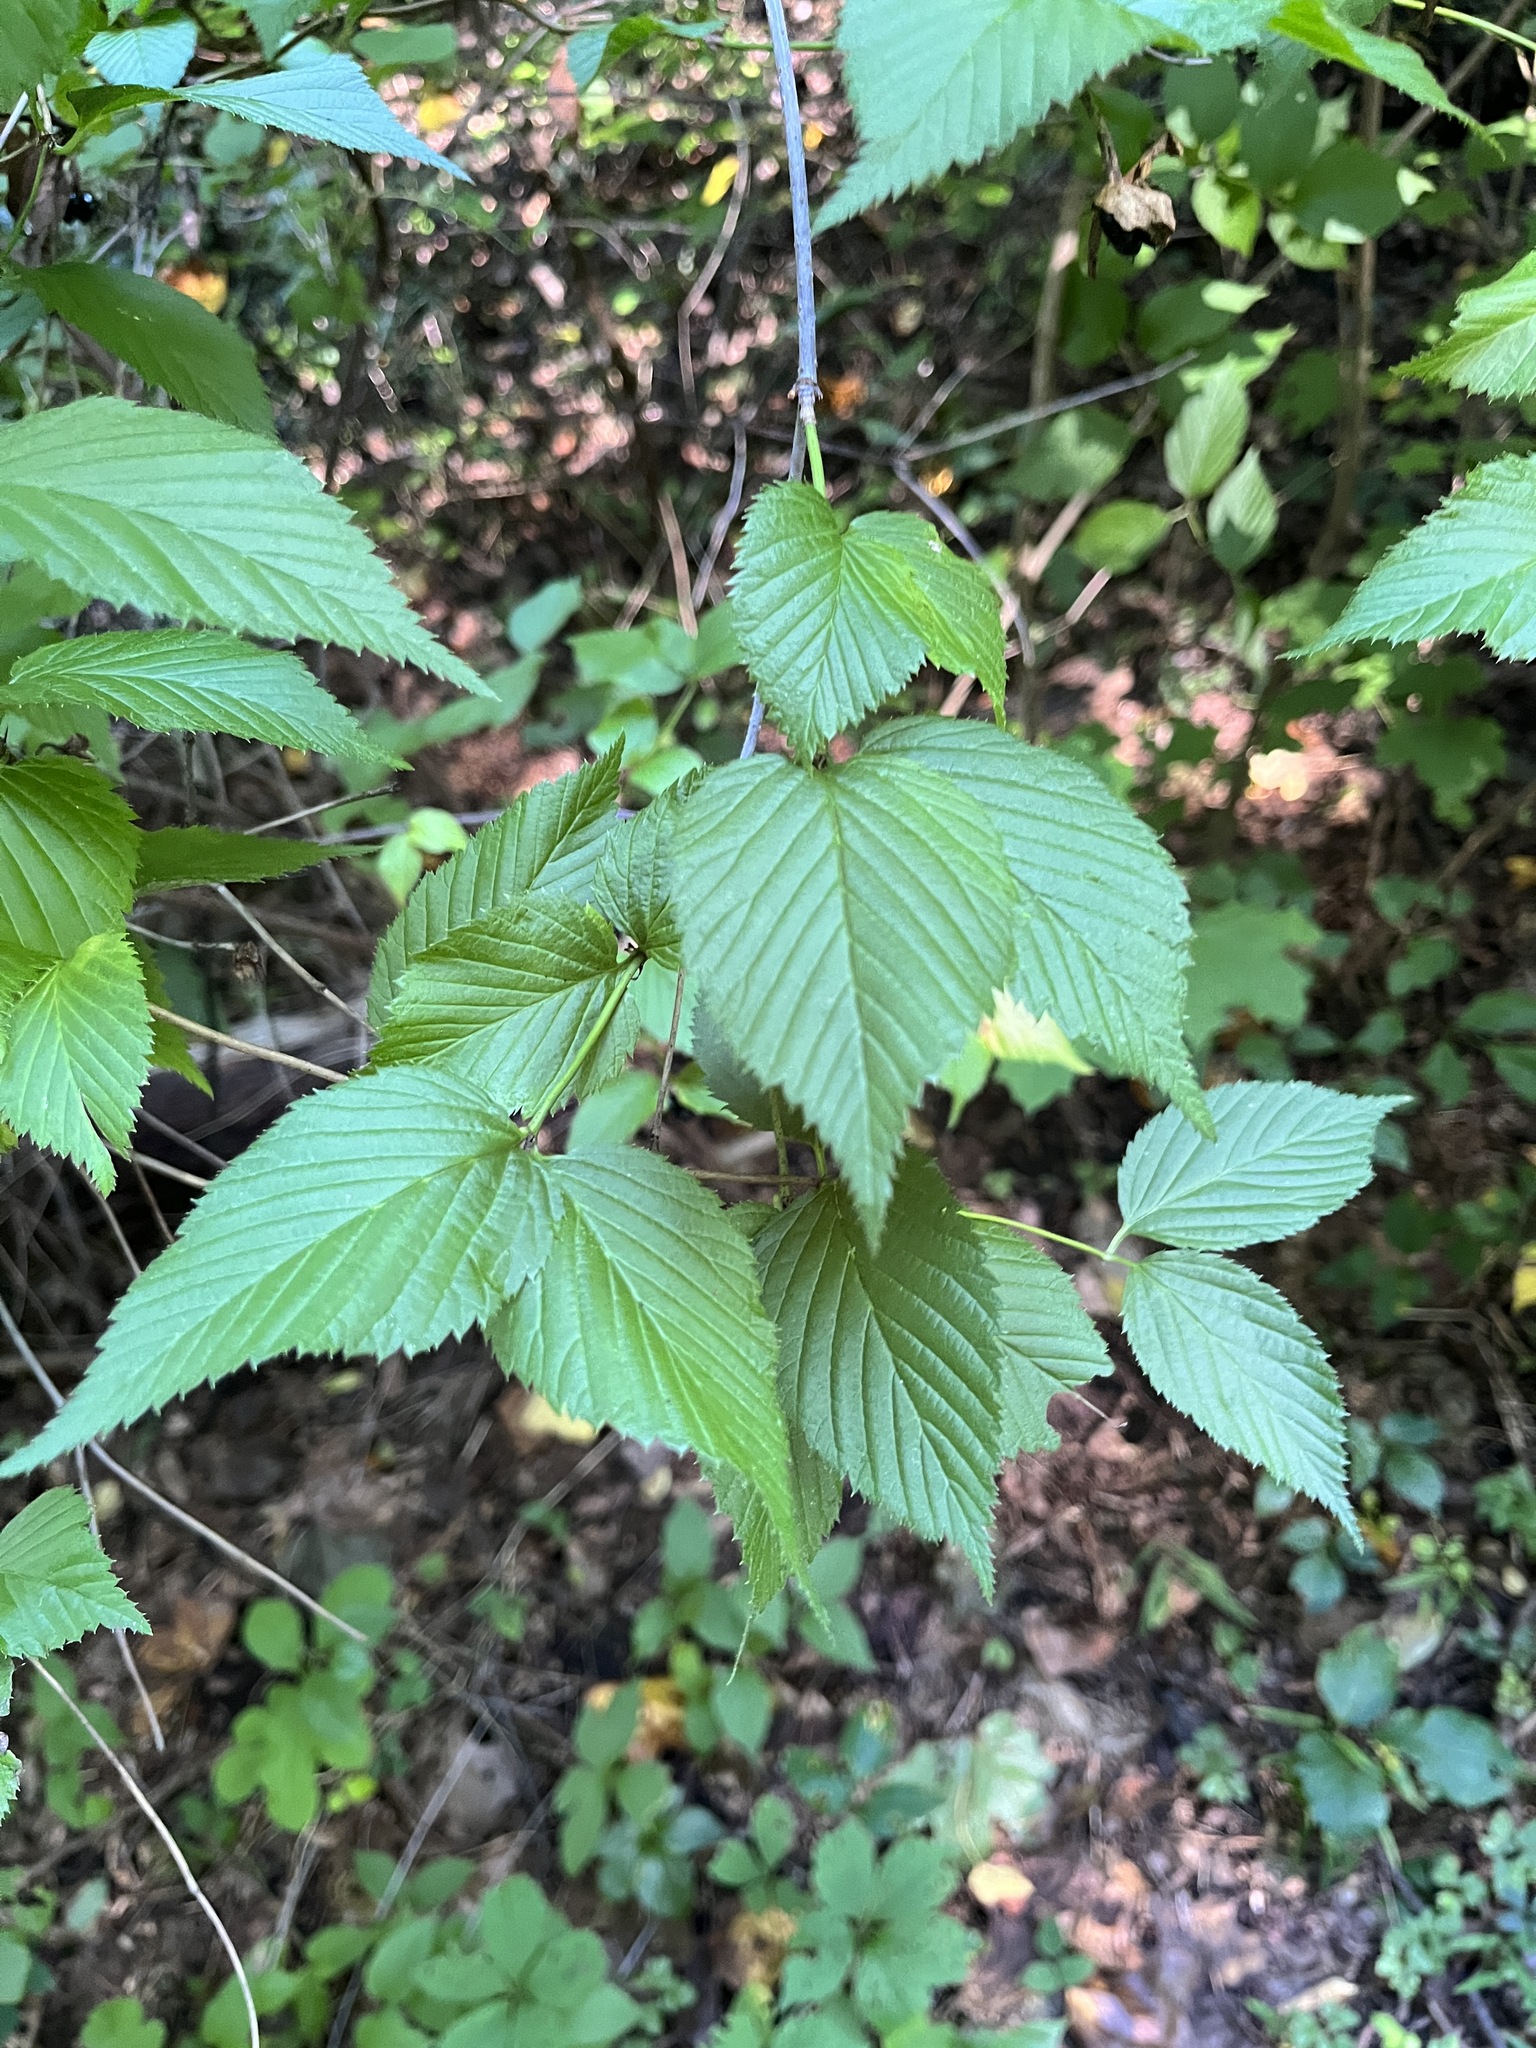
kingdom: Plantae
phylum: Tracheophyta
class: Magnoliopsida
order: Rosales
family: Rosaceae
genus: Rhodotypos
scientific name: Rhodotypos scandens
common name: Jetbead
